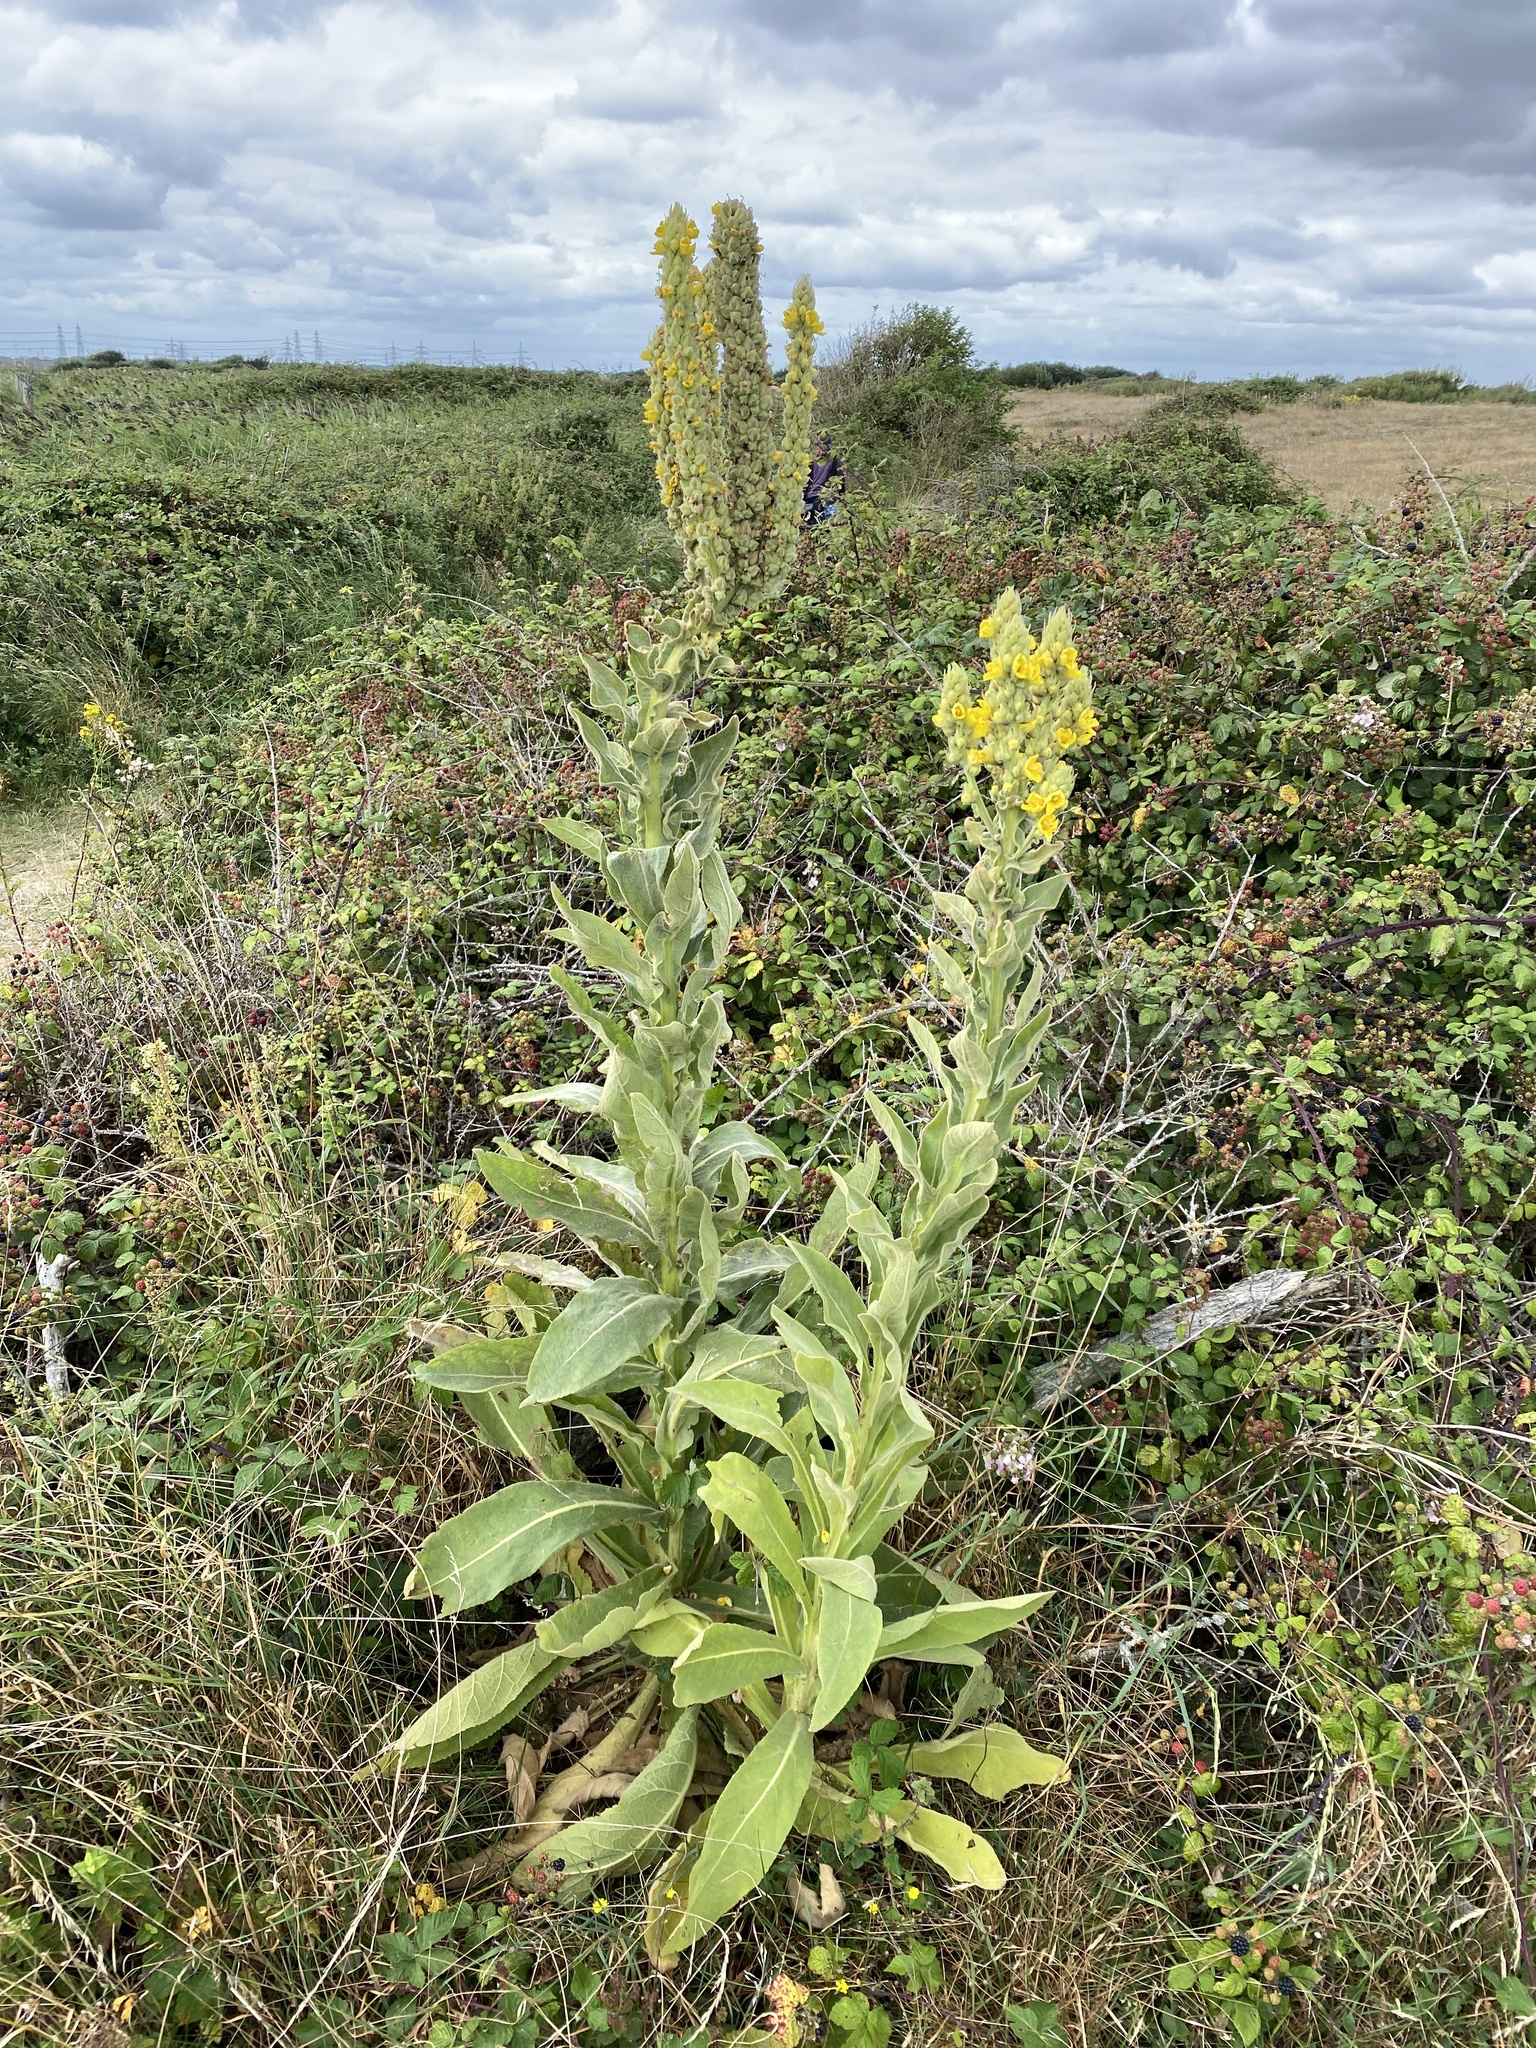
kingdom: Plantae
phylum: Tracheophyta
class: Magnoliopsida
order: Lamiales
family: Scrophulariaceae
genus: Verbascum
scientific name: Verbascum thapsus
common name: Common mullein
